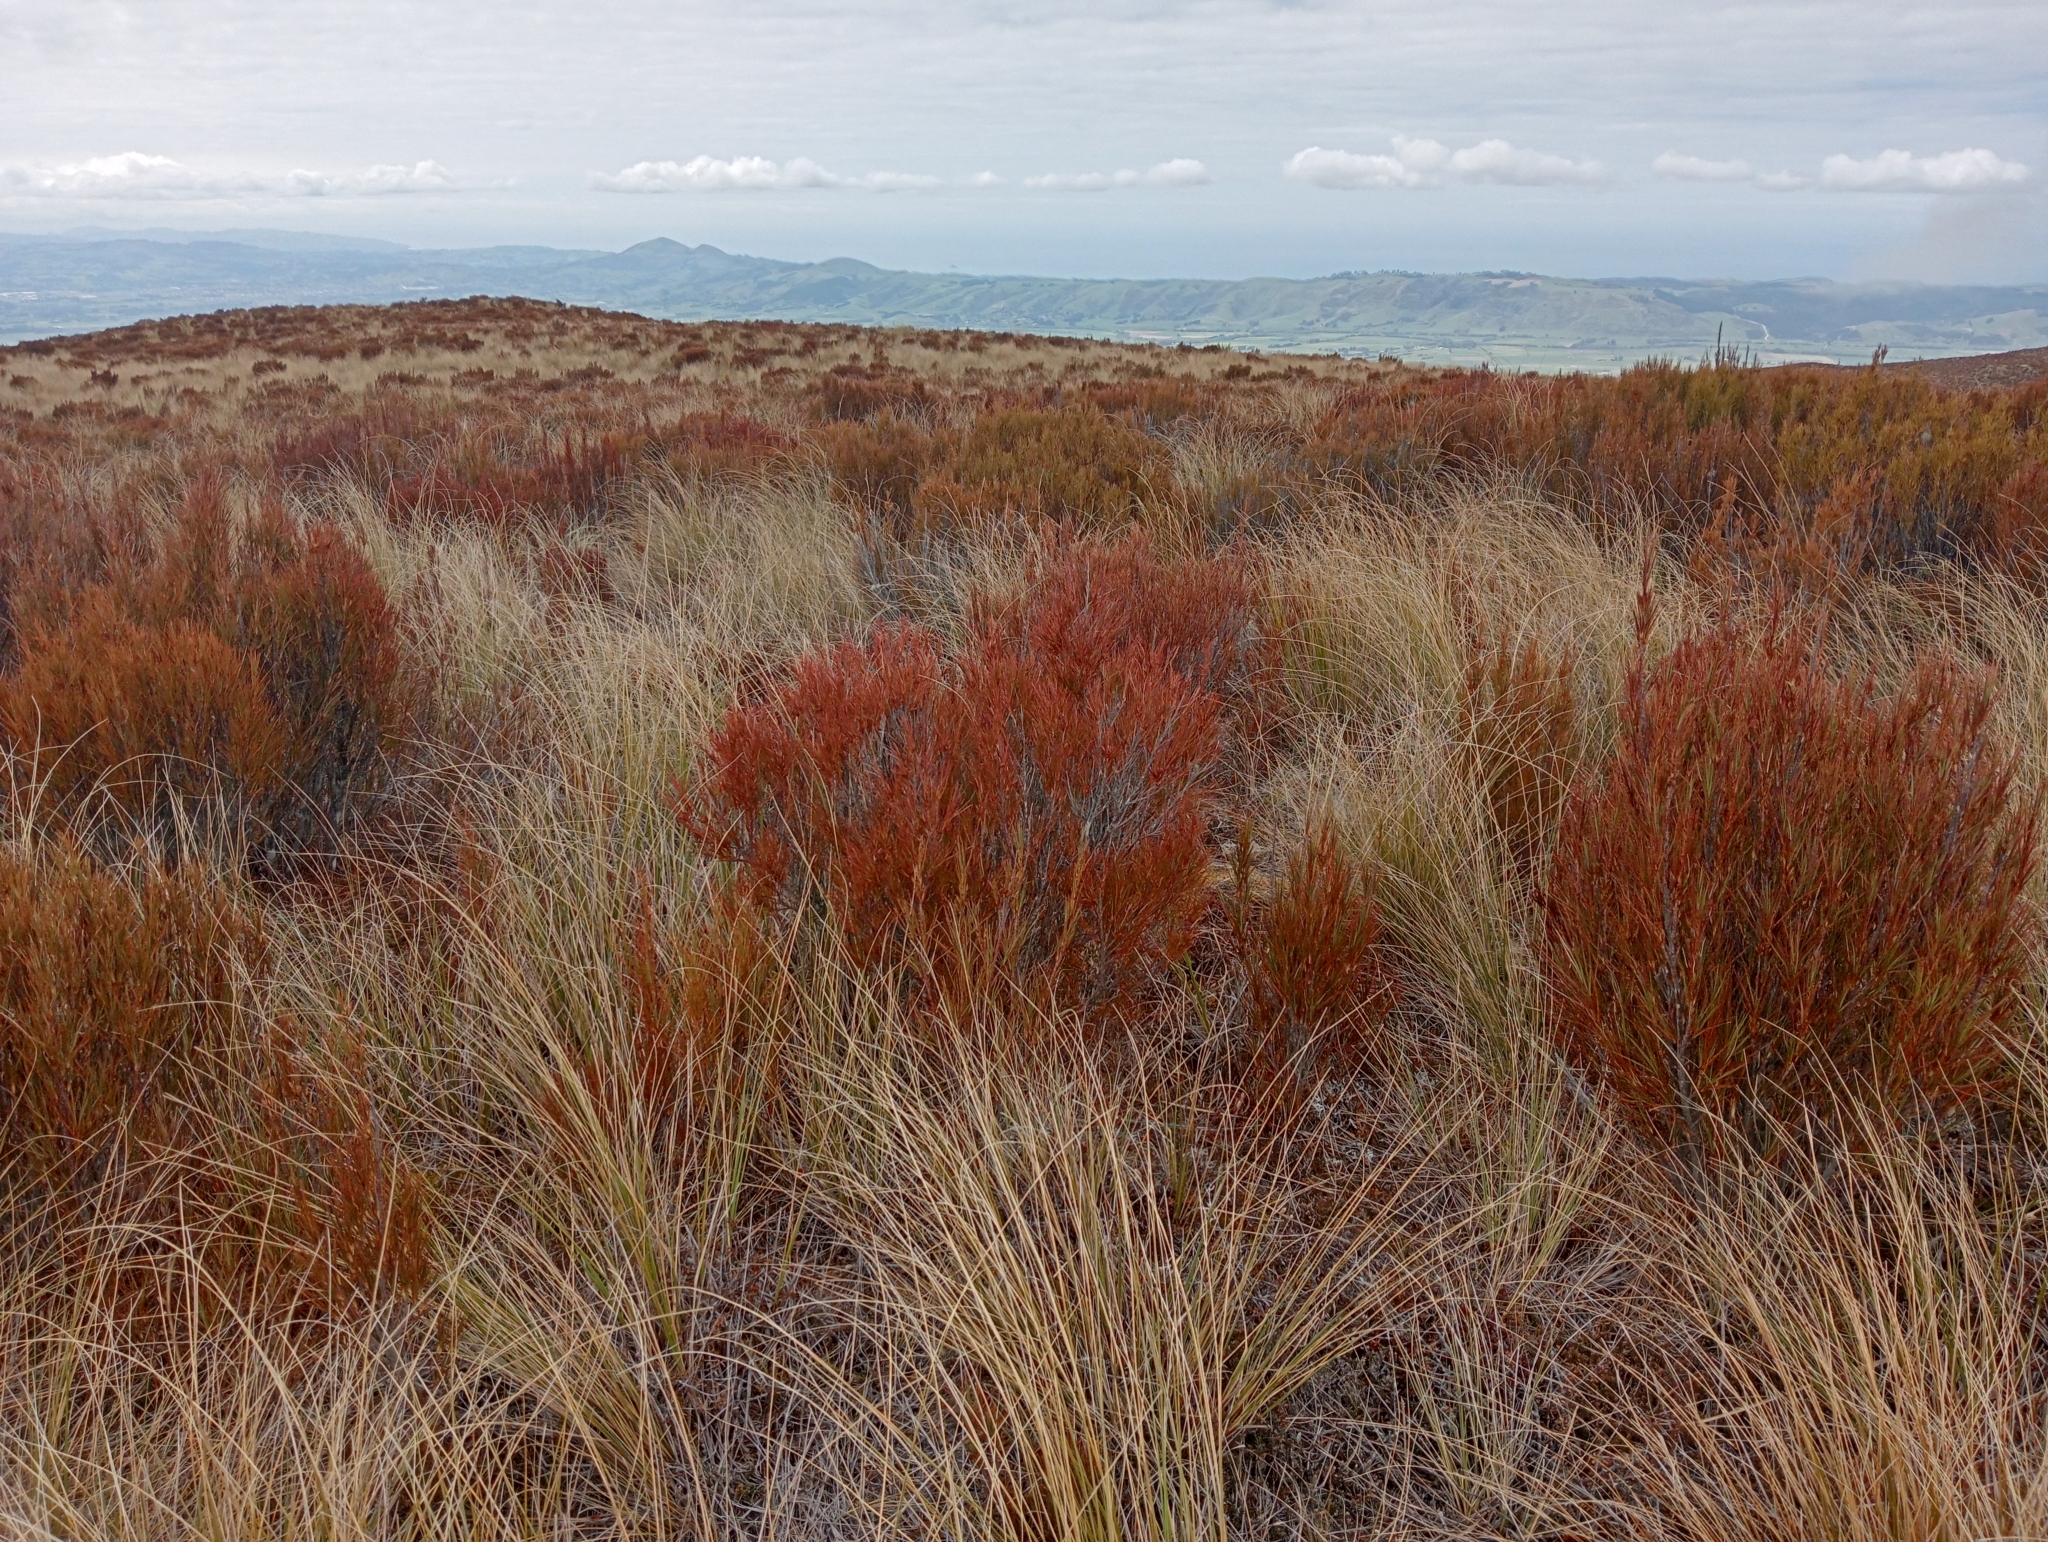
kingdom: Plantae
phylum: Tracheophyta
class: Magnoliopsida
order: Ericales
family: Ericaceae
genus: Dracophyllum
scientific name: Dracophyllum longifolium
